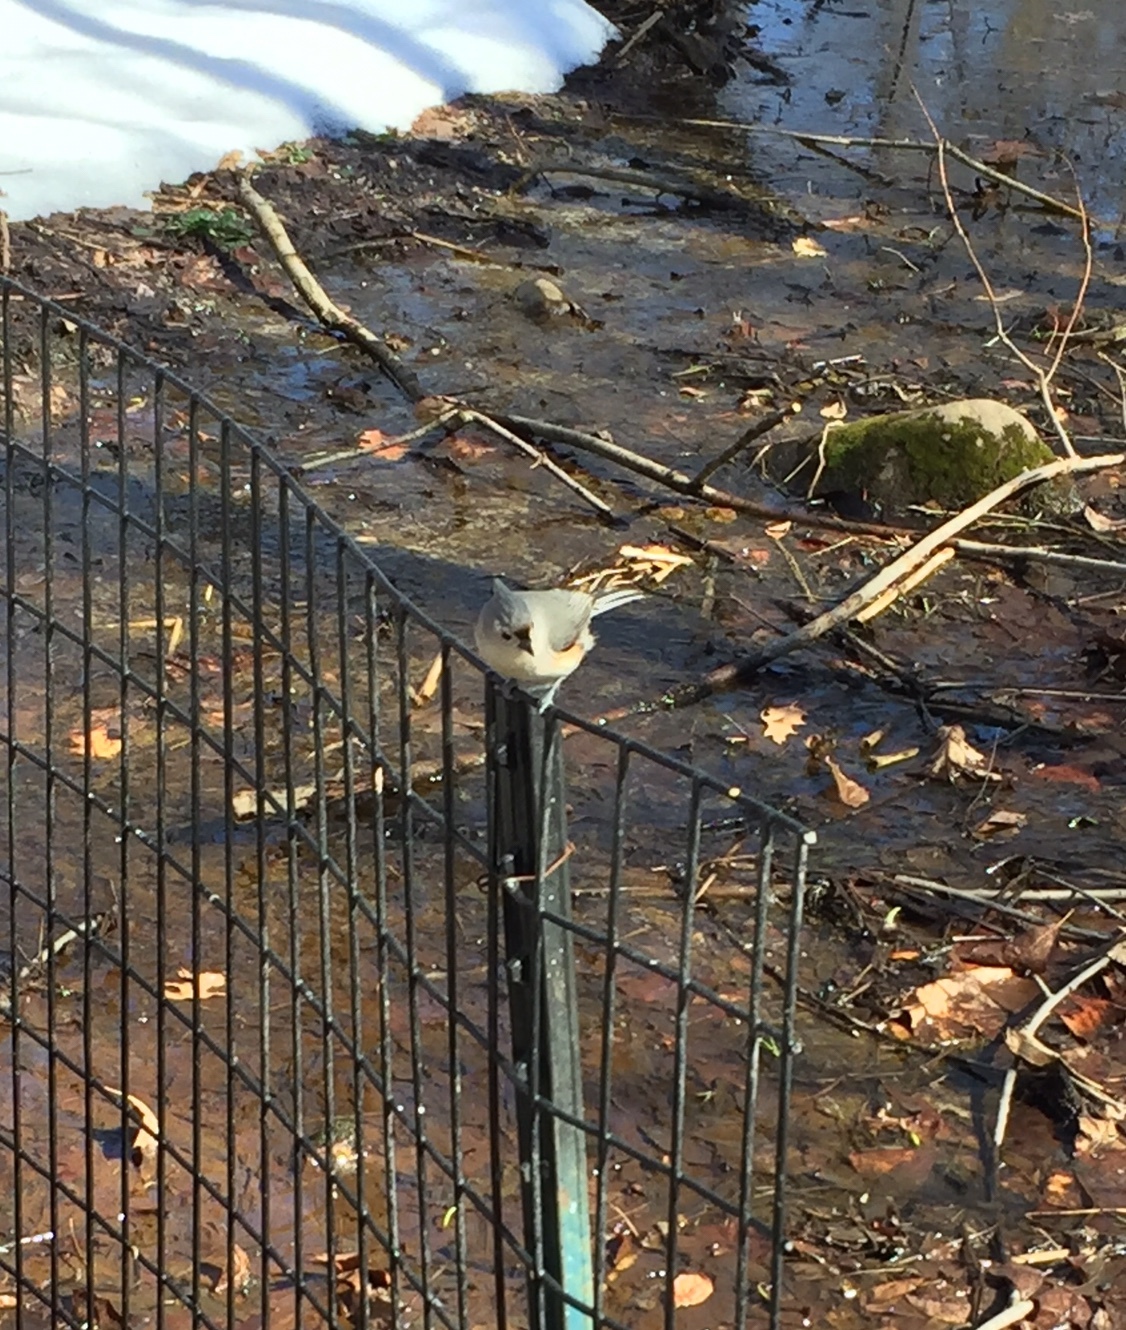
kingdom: Animalia
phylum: Chordata
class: Aves
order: Passeriformes
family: Paridae
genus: Baeolophus
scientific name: Baeolophus bicolor
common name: Tufted titmouse
